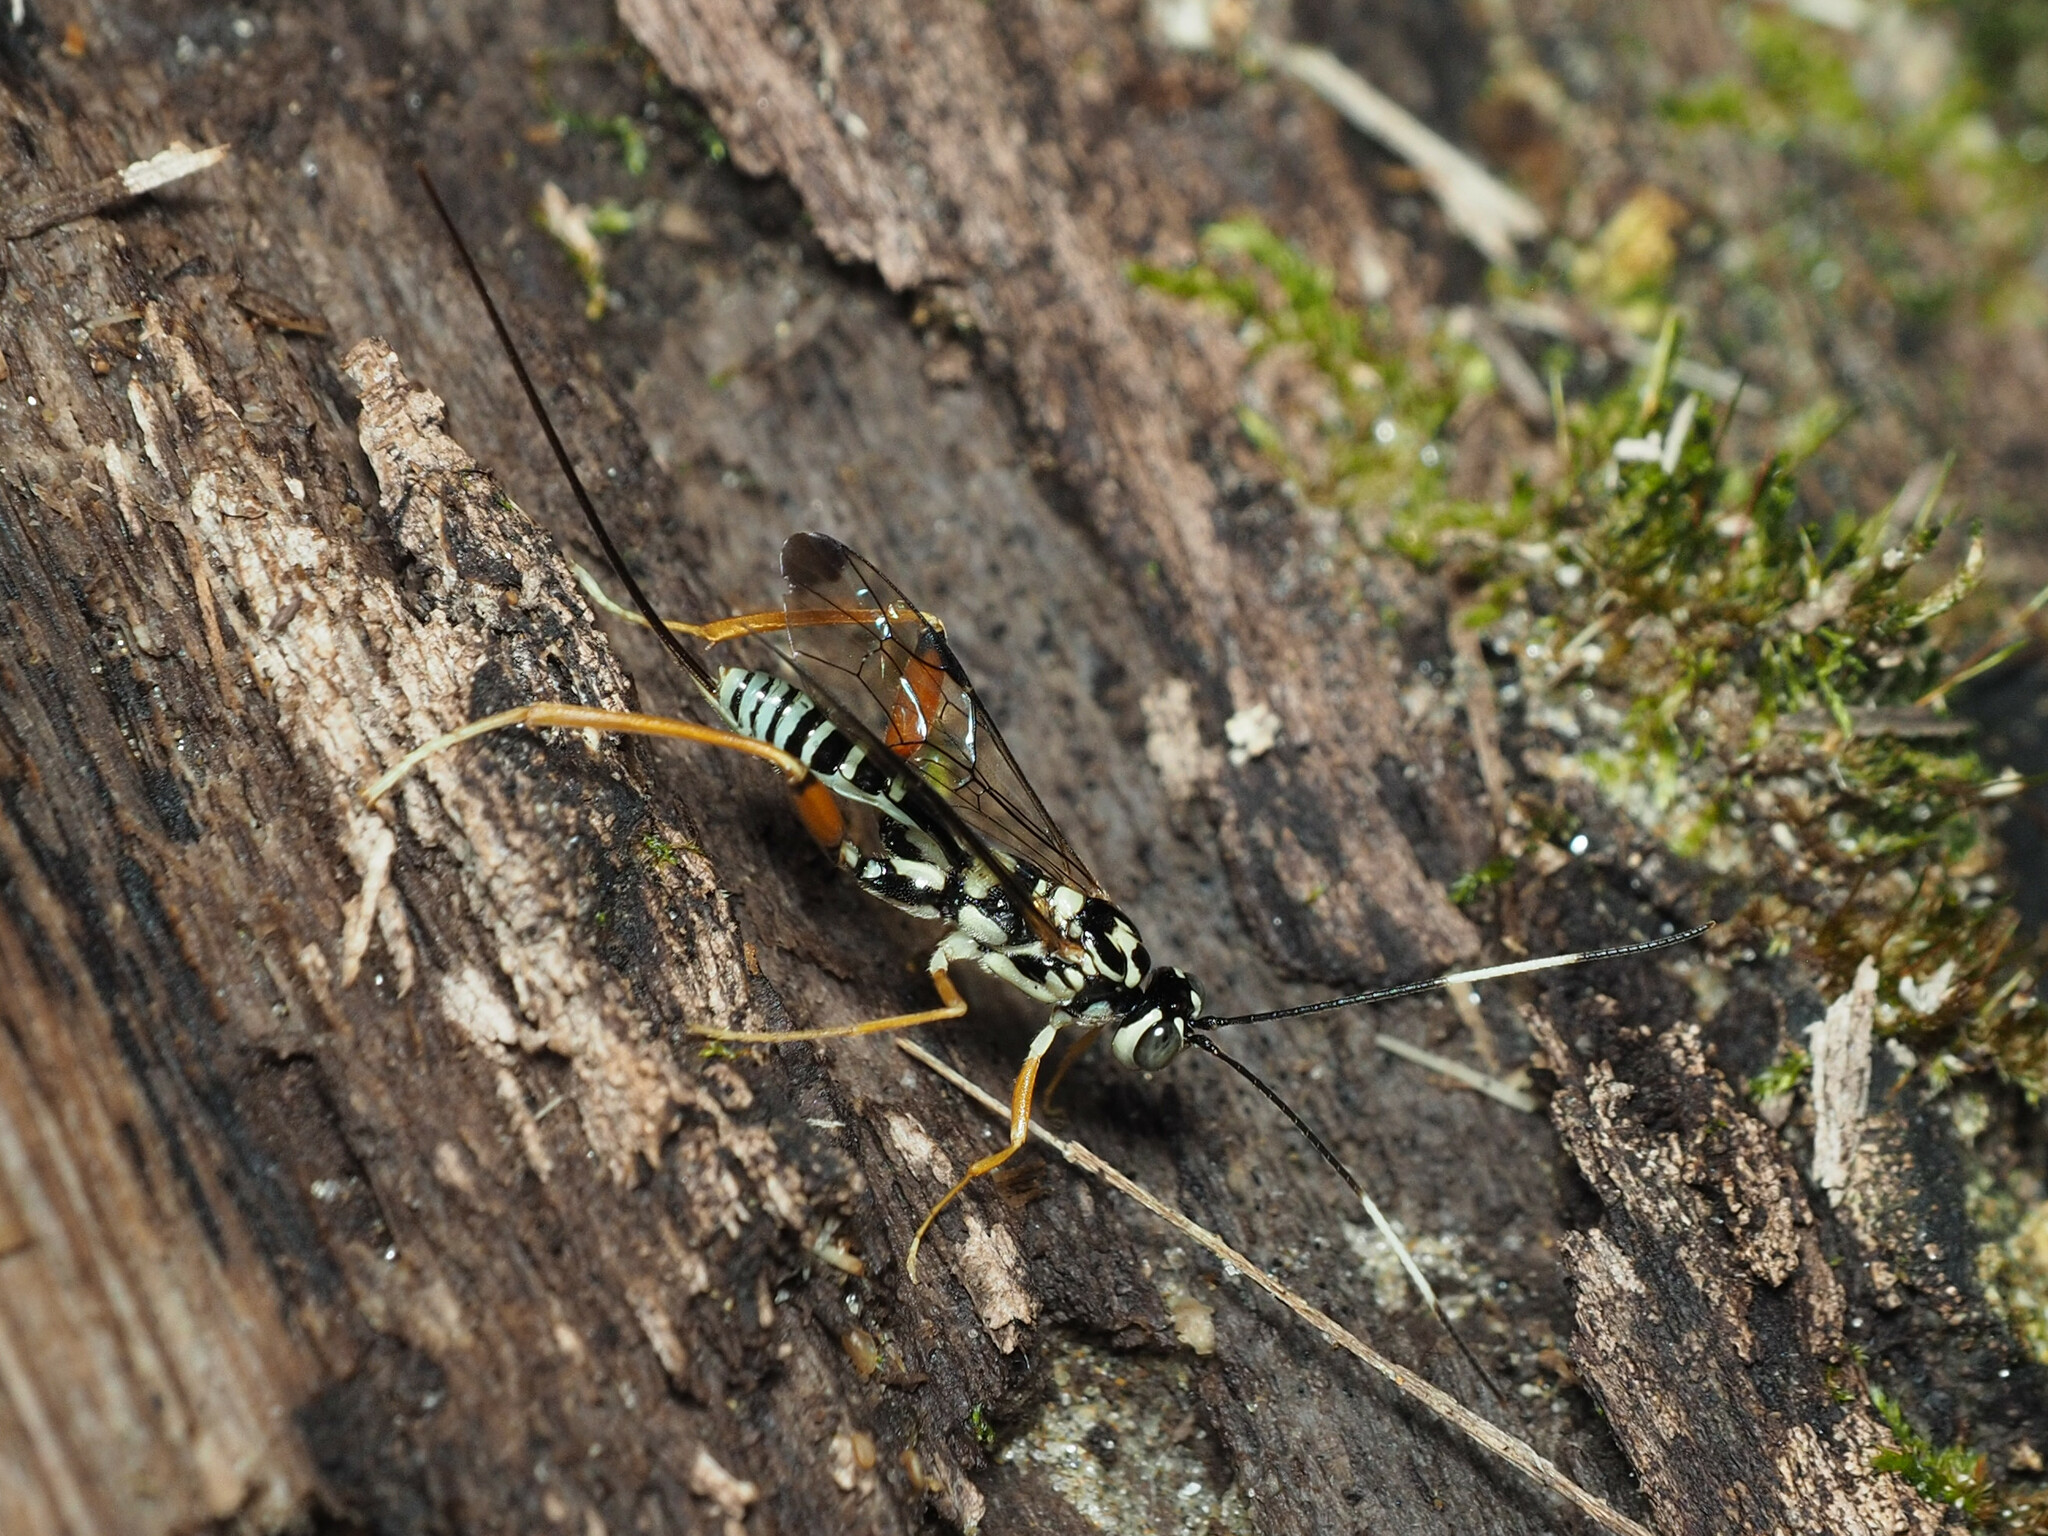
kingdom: Animalia
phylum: Arthropoda
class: Insecta
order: Hymenoptera
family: Ichneumonidae
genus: Arotes
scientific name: Arotes decorus
